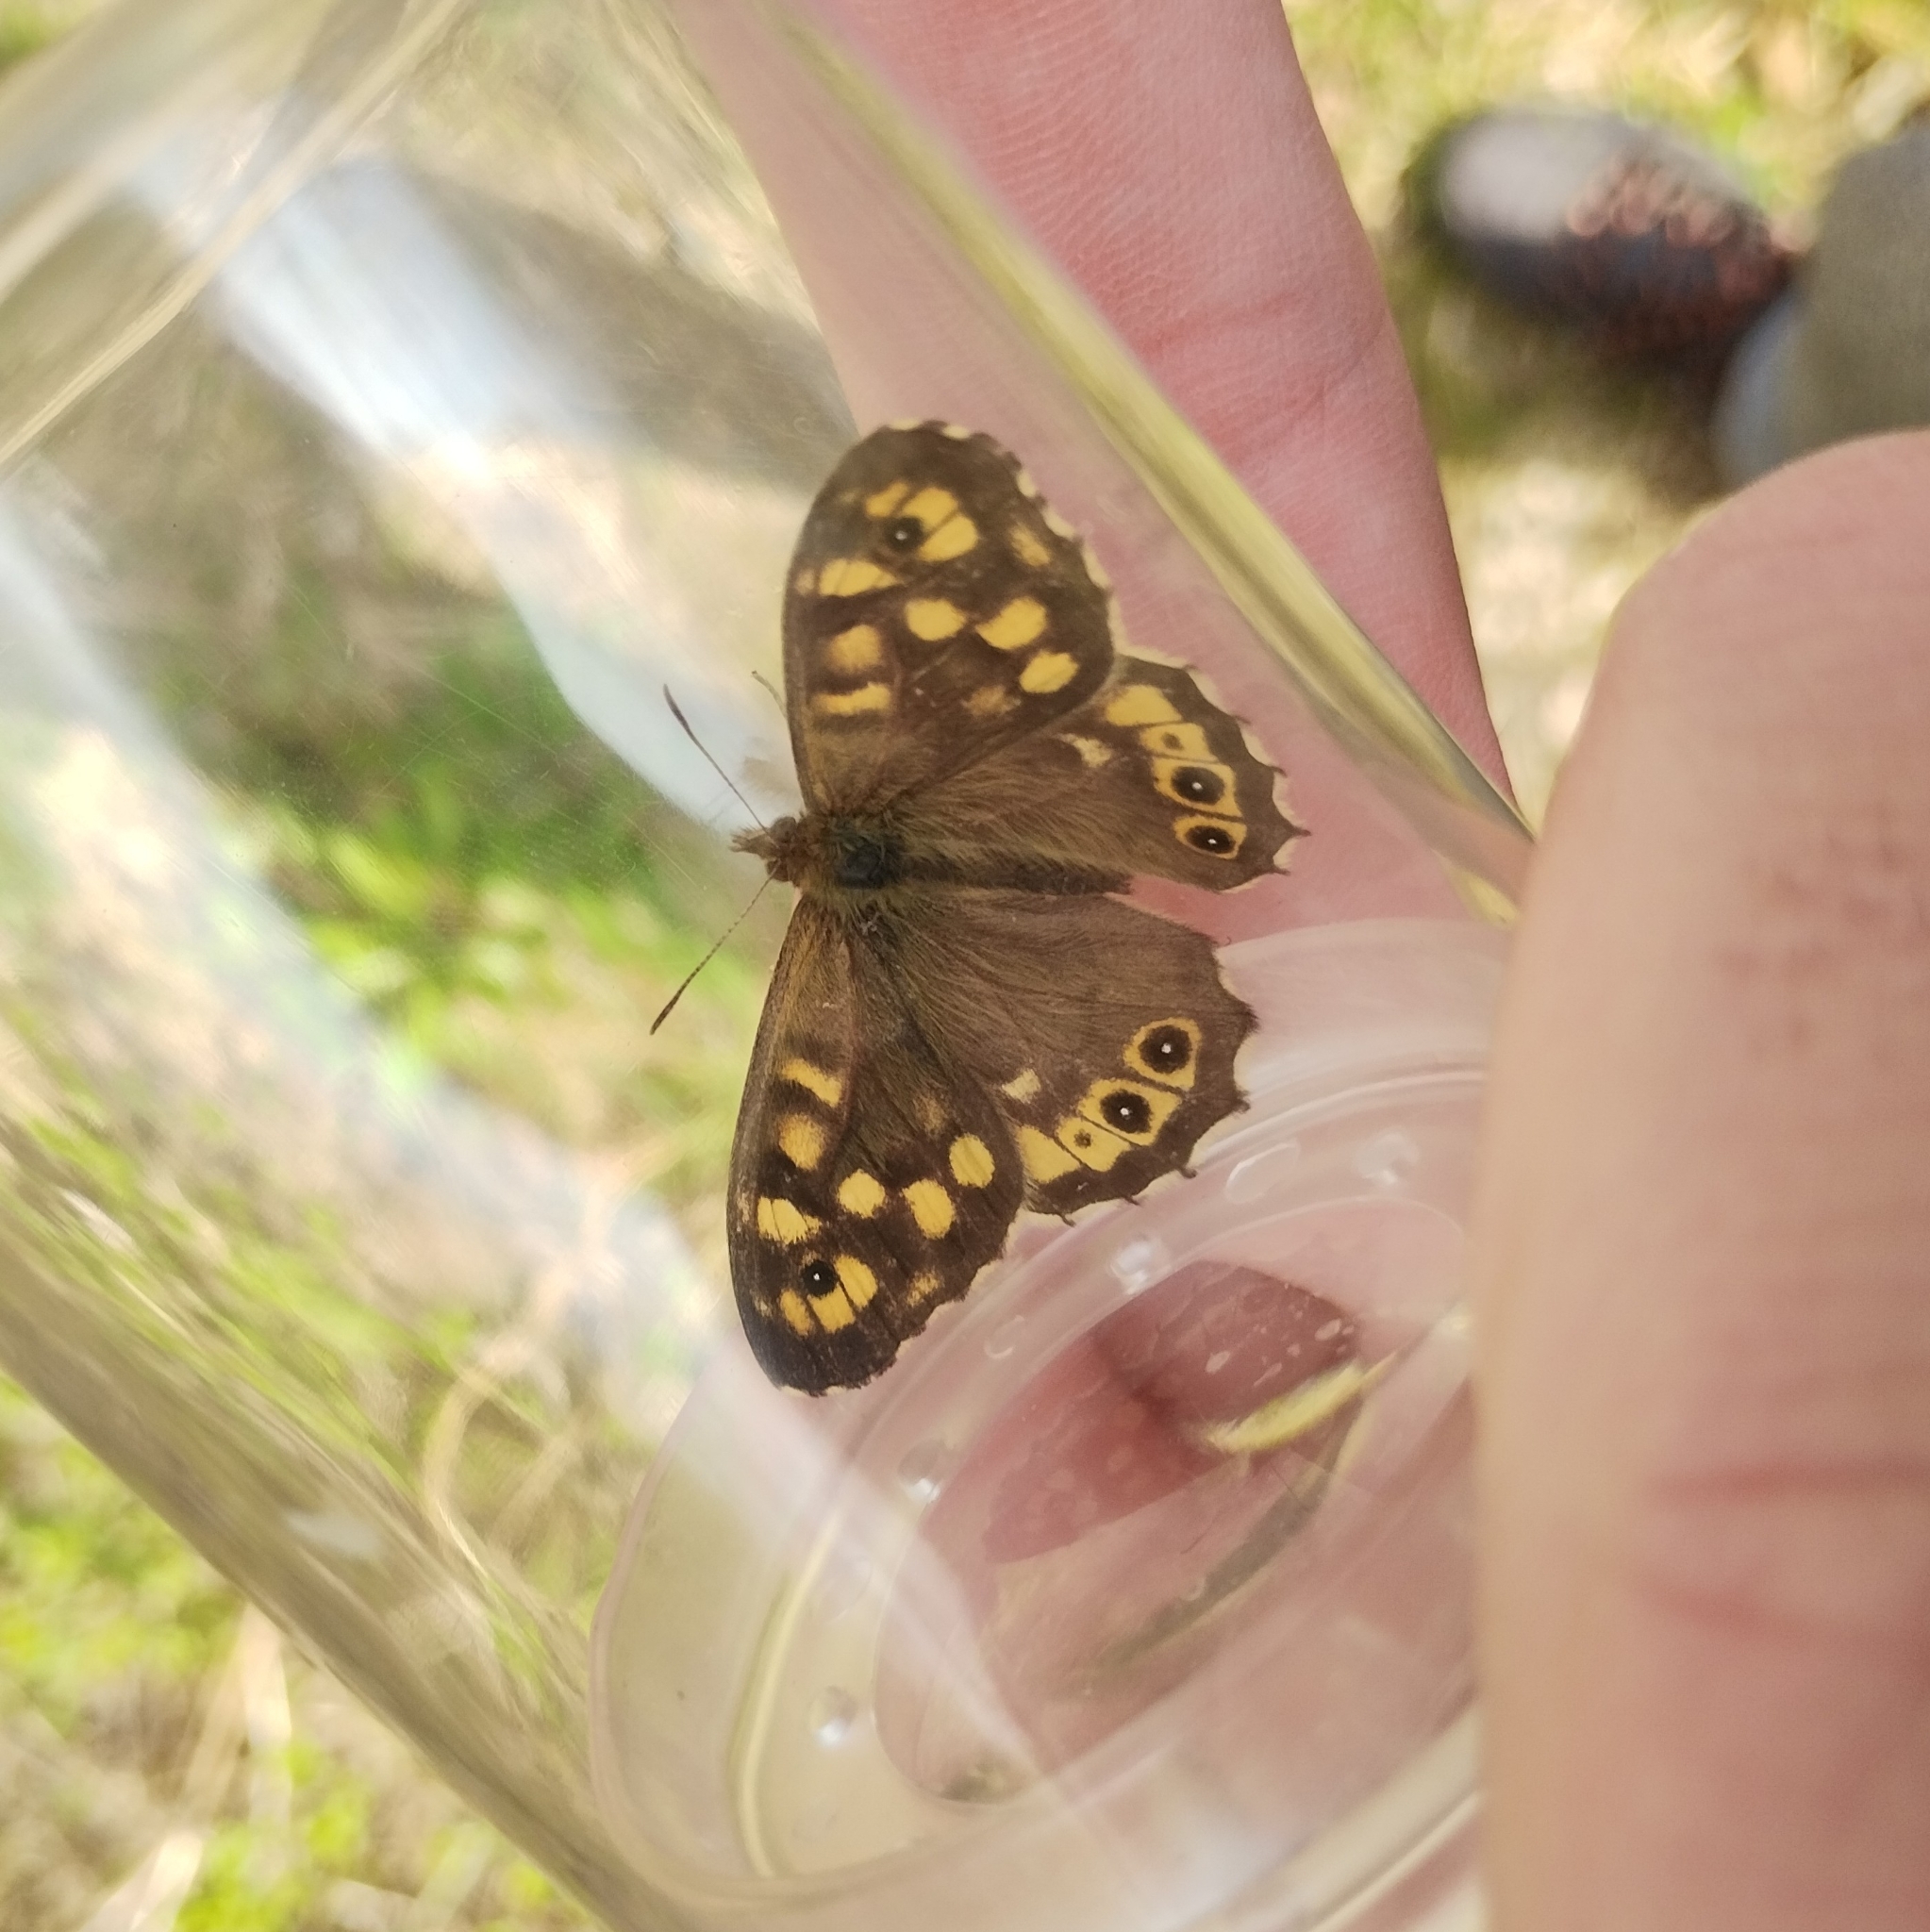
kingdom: Animalia
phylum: Arthropoda
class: Insecta
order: Lepidoptera
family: Nymphalidae
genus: Pararge
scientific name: Pararge aegeria
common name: Speckled wood
